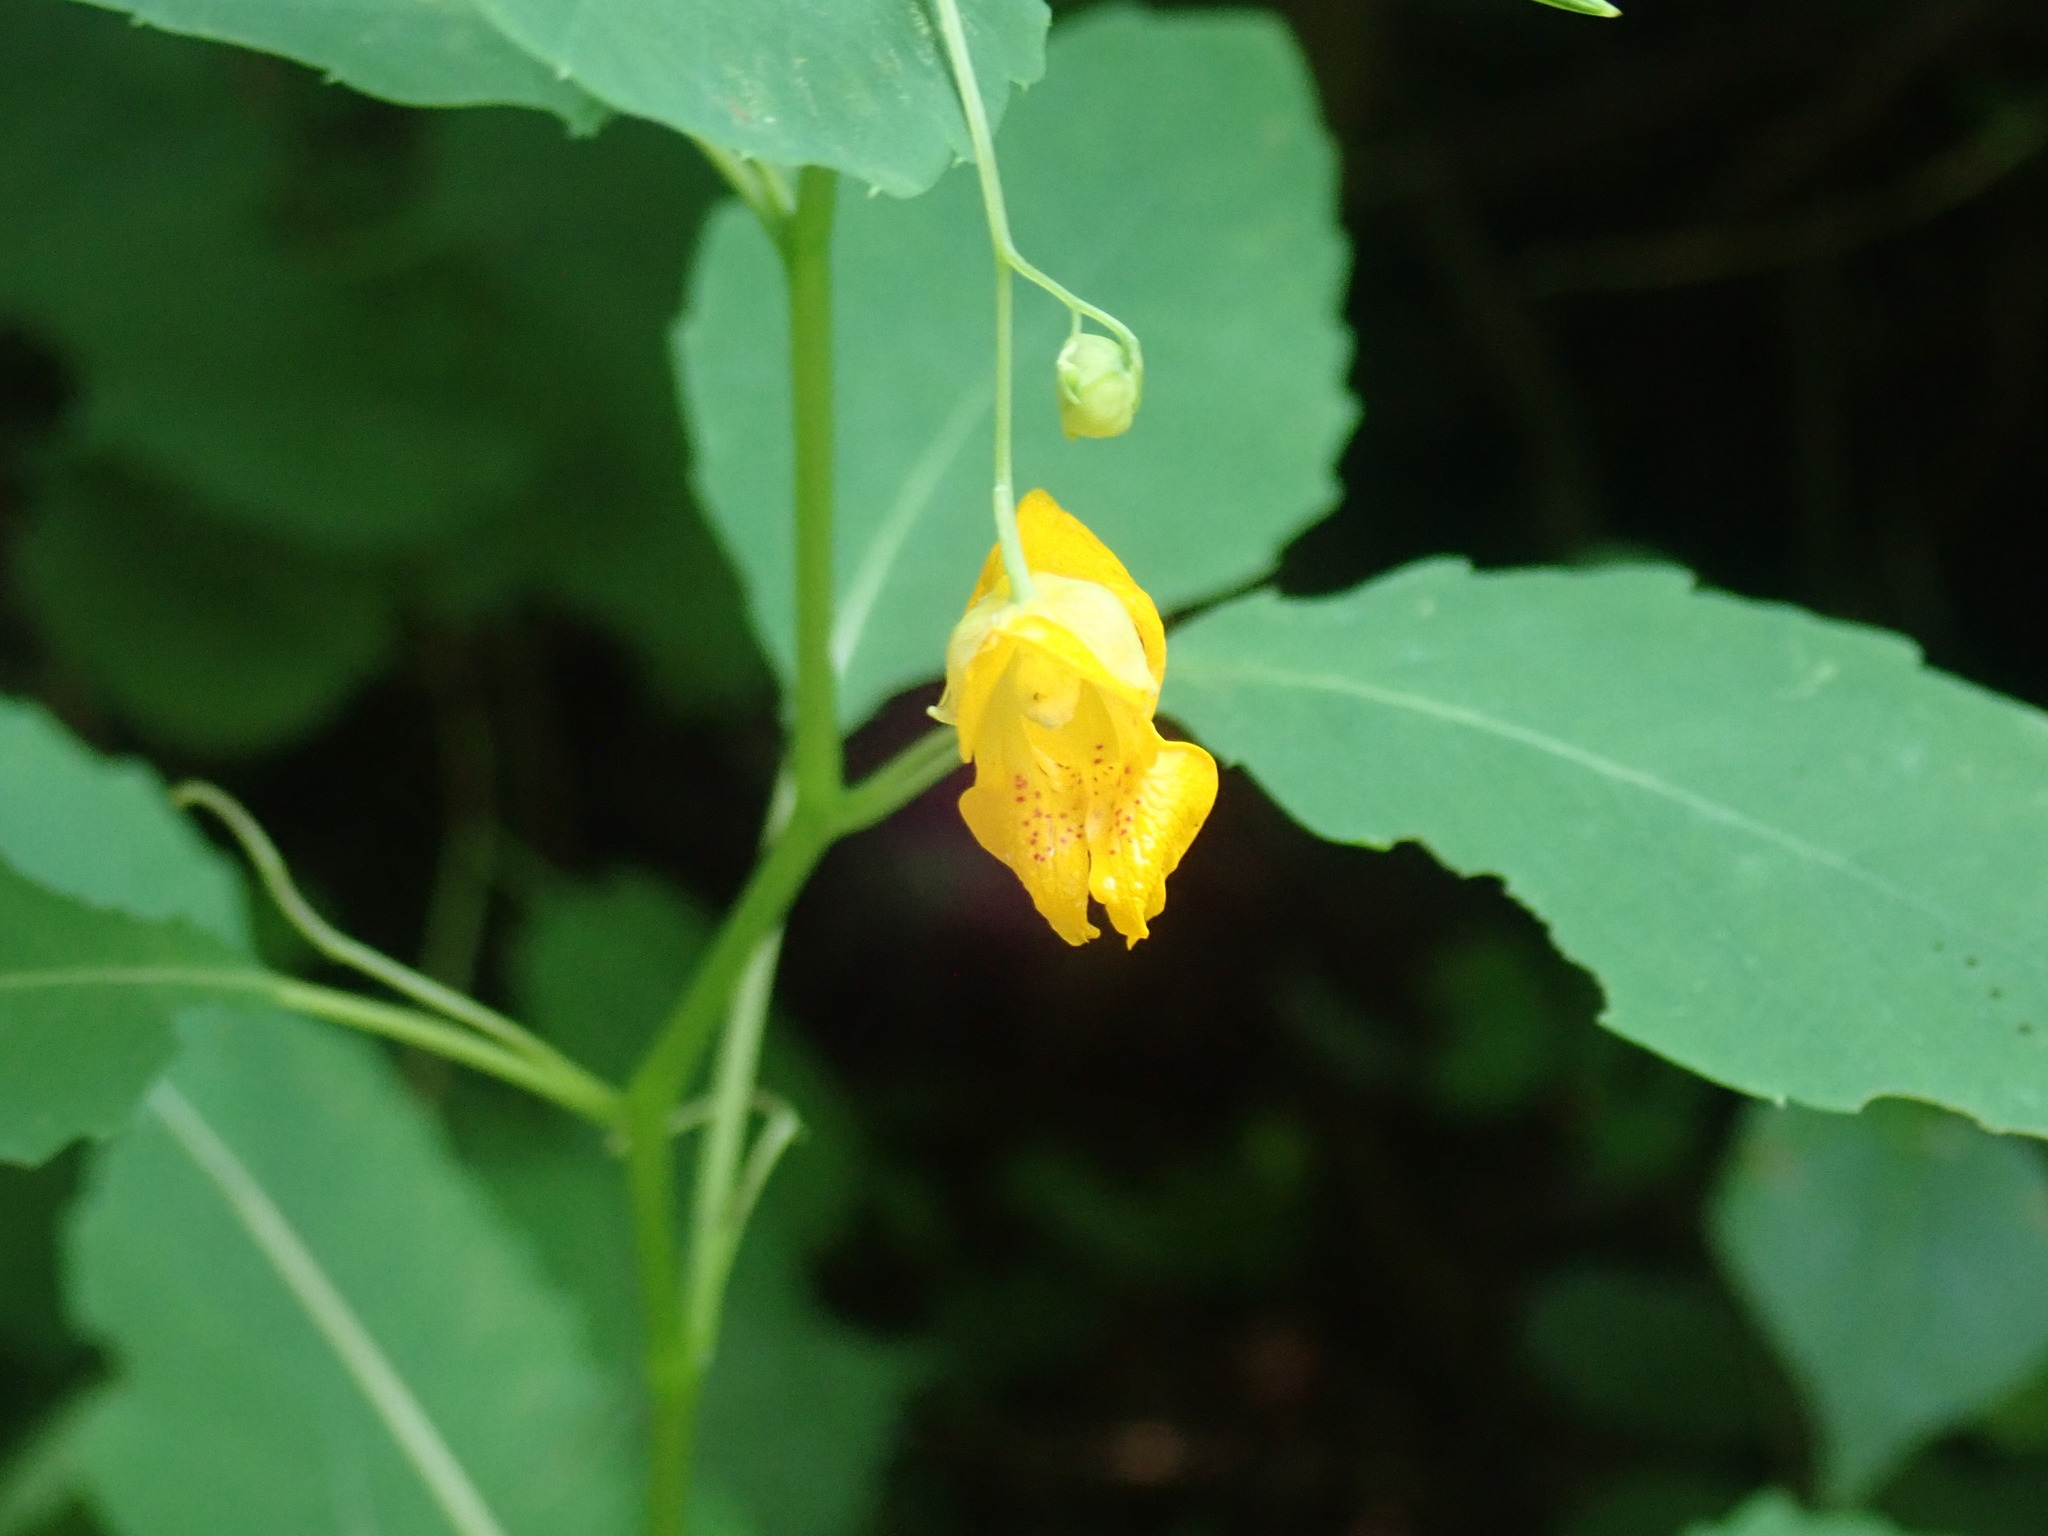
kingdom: Plantae
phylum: Tracheophyta
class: Magnoliopsida
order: Ericales
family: Balsaminaceae
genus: Impatiens
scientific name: Impatiens capensis
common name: Orange balsam
